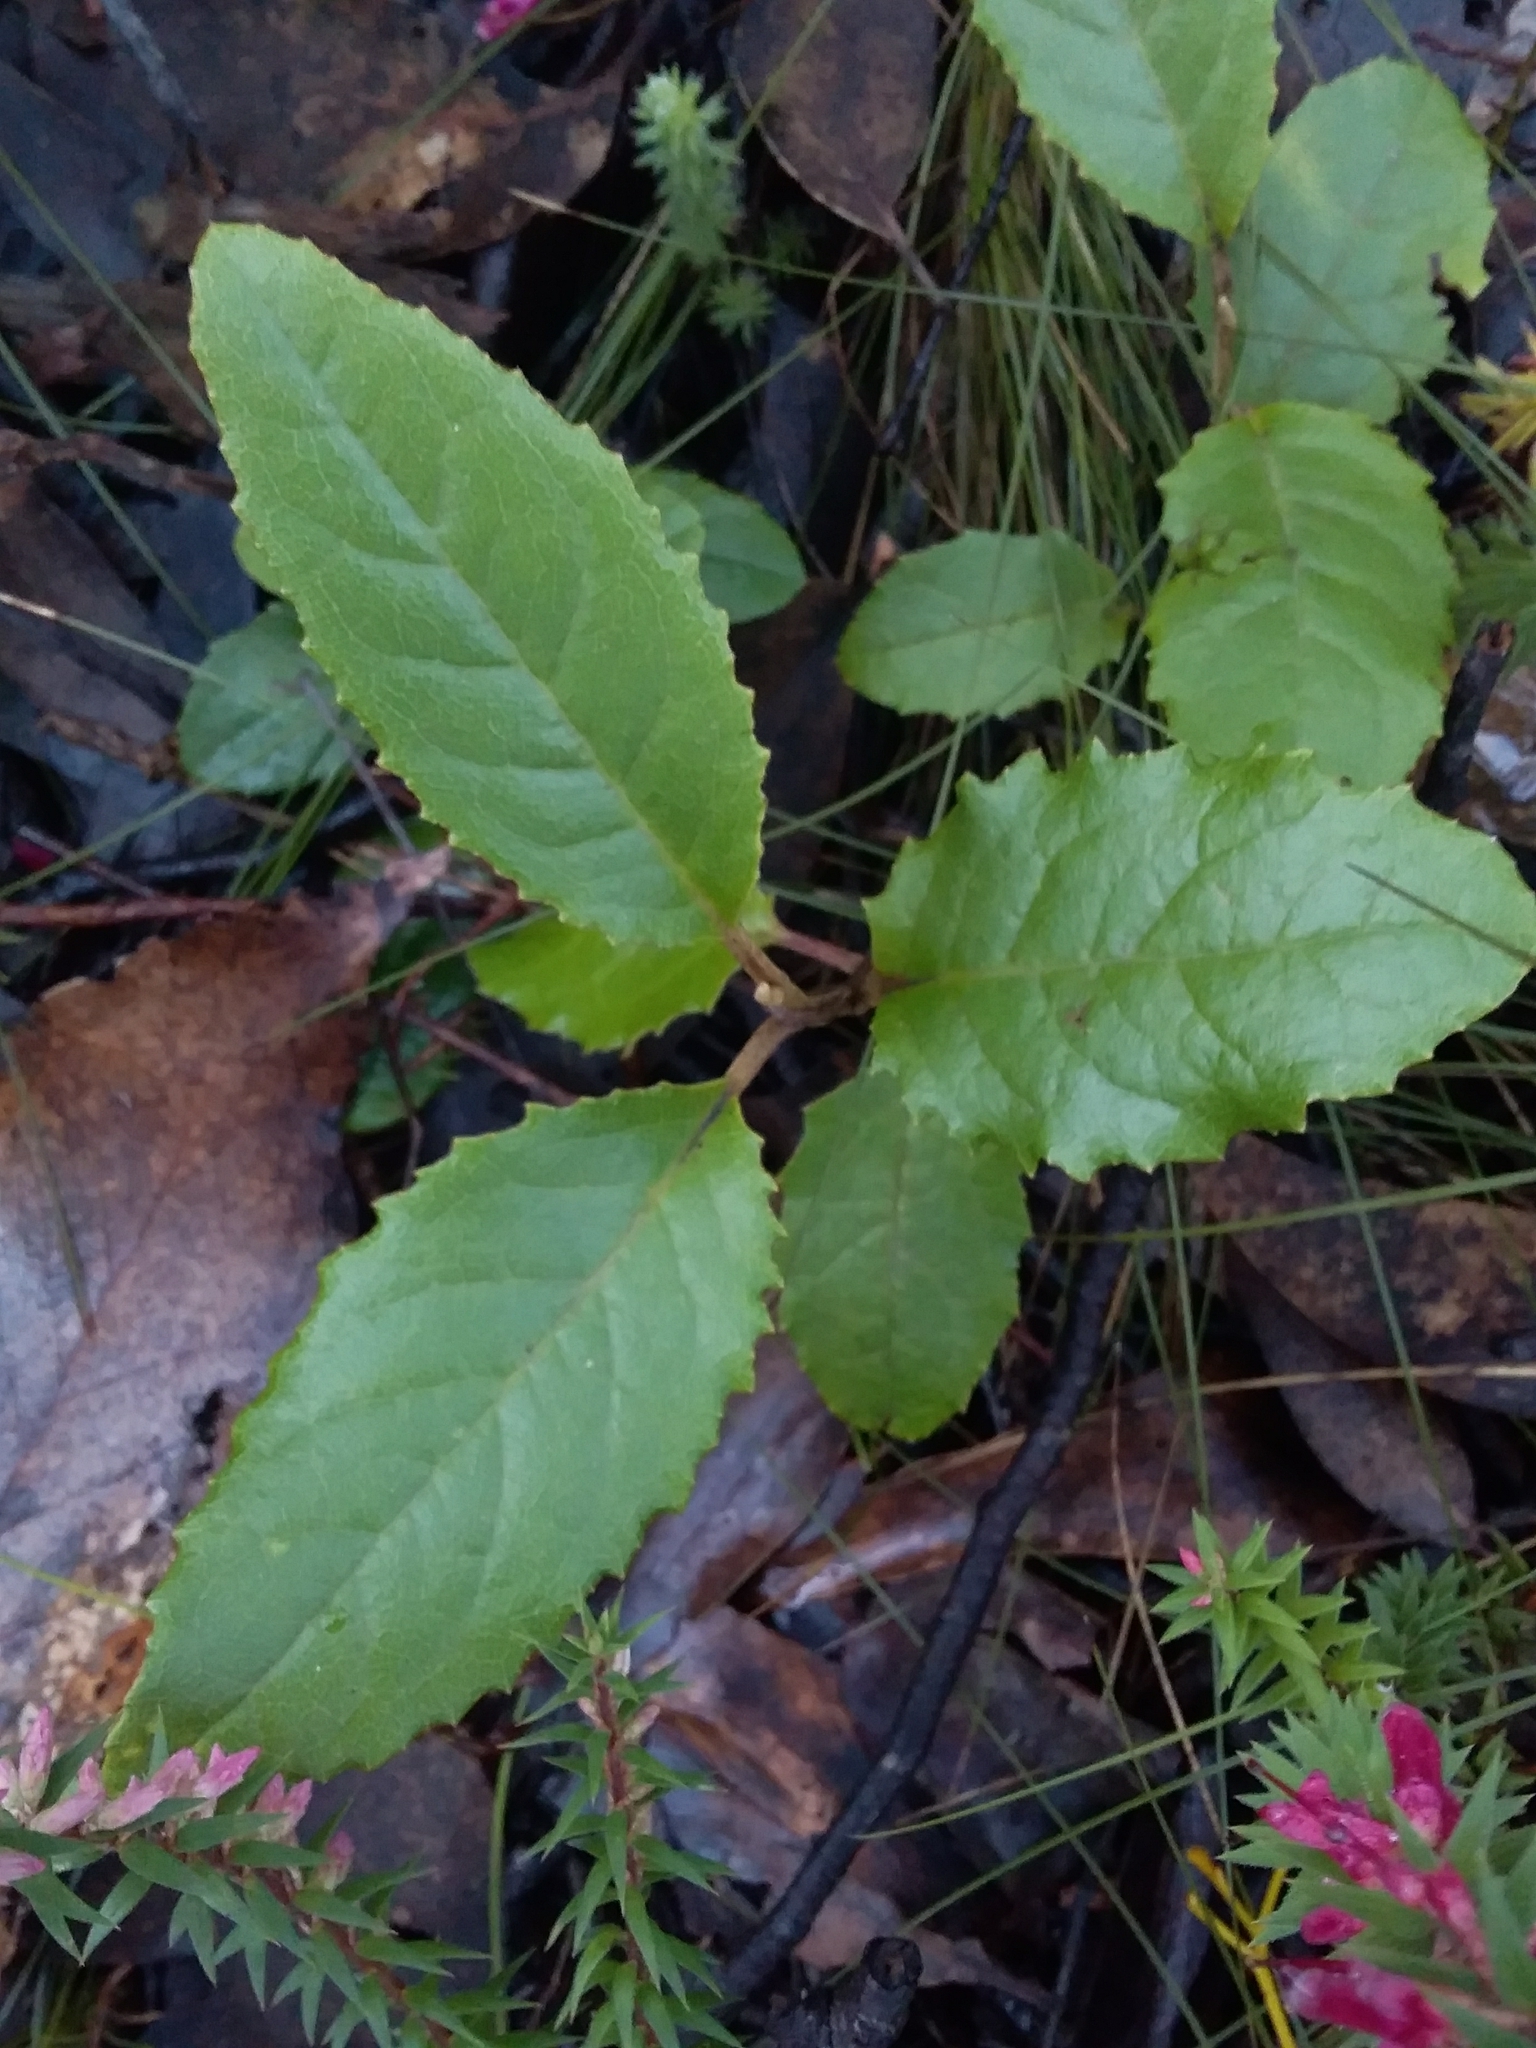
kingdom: Plantae
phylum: Tracheophyta
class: Magnoliopsida
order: Asterales
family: Asteraceae
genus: Olearia
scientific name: Olearia grandiflora
